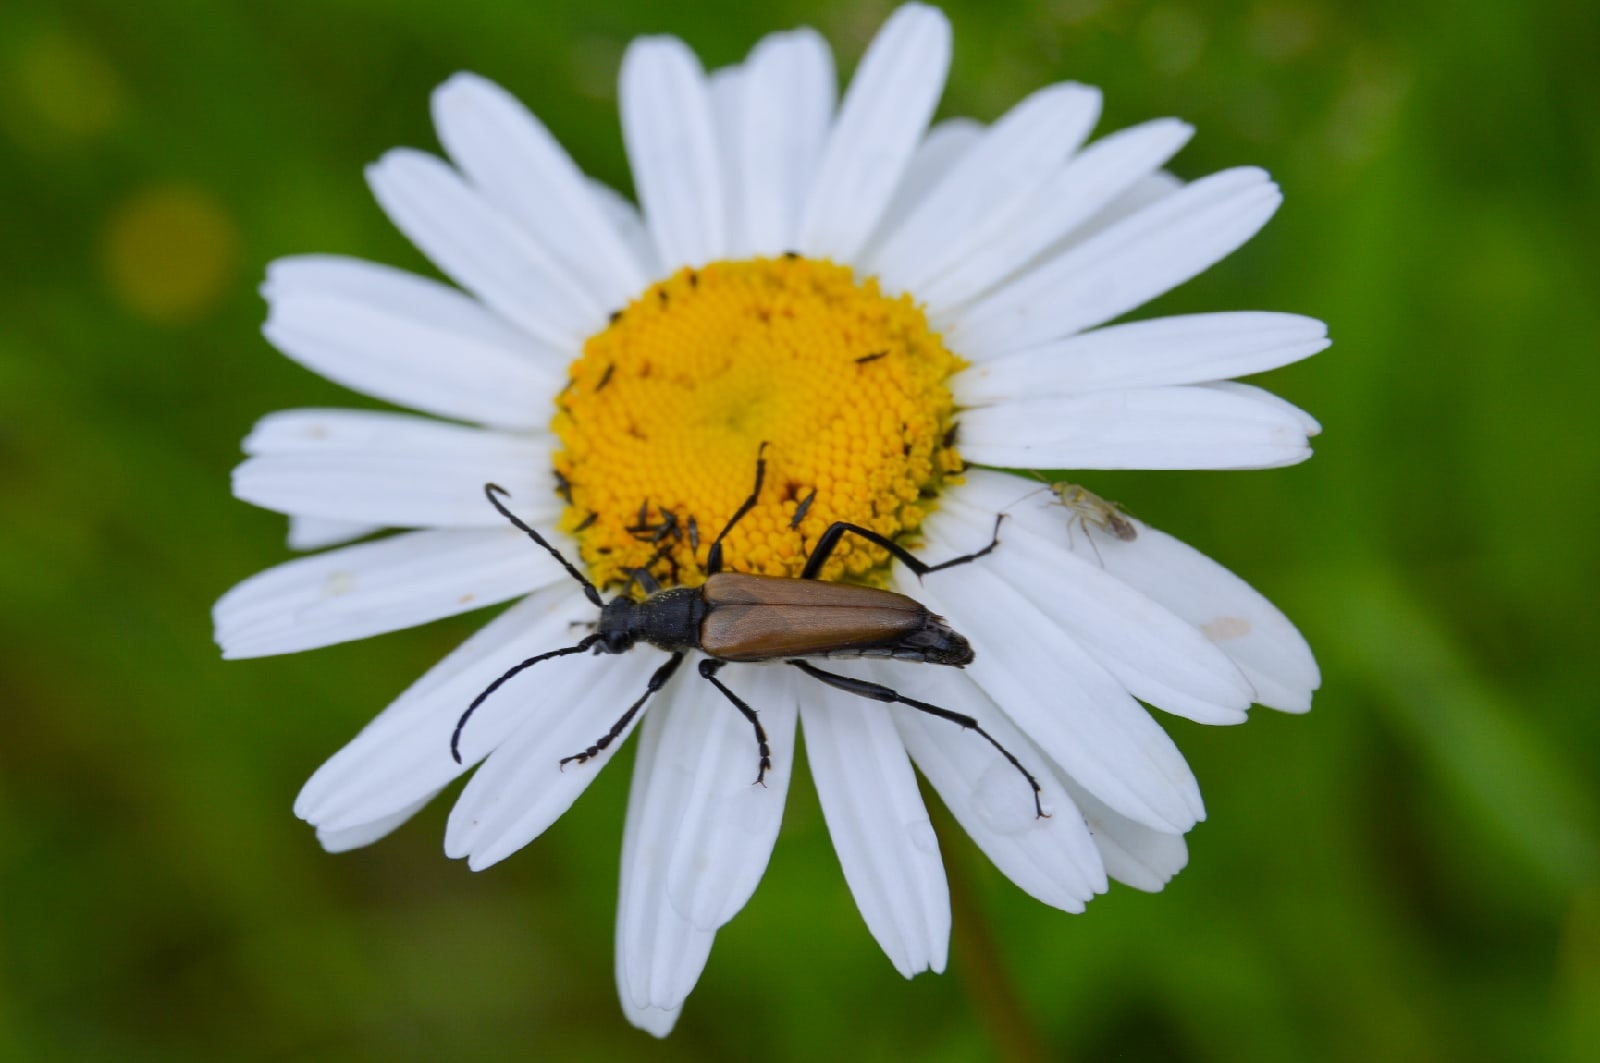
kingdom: Animalia
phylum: Arthropoda
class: Insecta
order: Coleoptera
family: Cerambycidae
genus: Lepturalia
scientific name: Lepturalia nigripes
